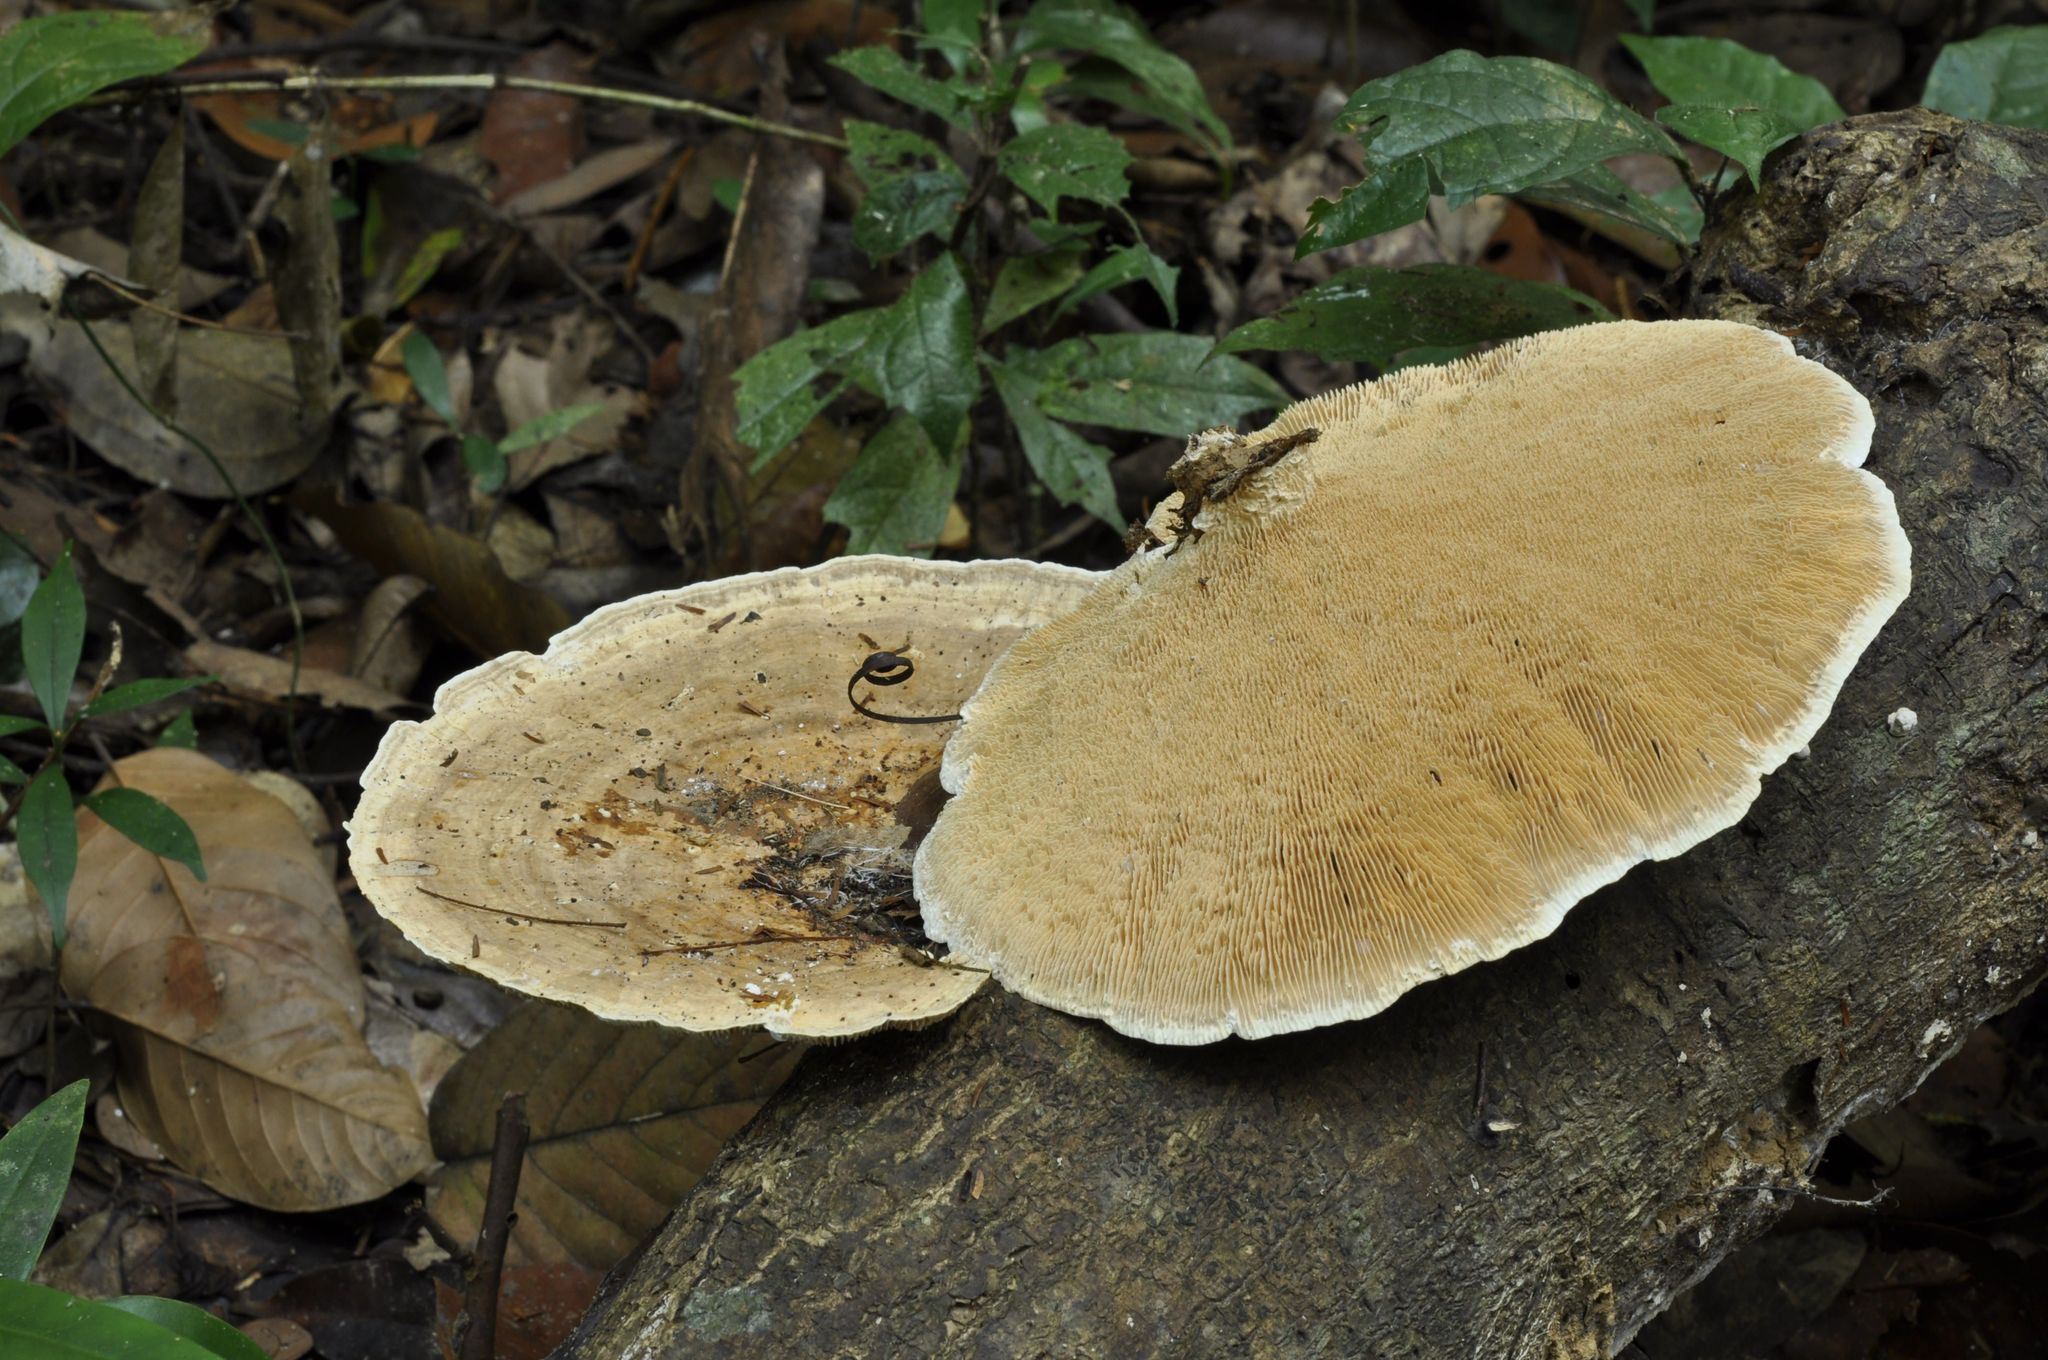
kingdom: Fungi
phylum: Basidiomycota
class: Agaricomycetes
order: Polyporales
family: Polyporaceae
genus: Cubamyces
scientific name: Cubamyces flavidus
